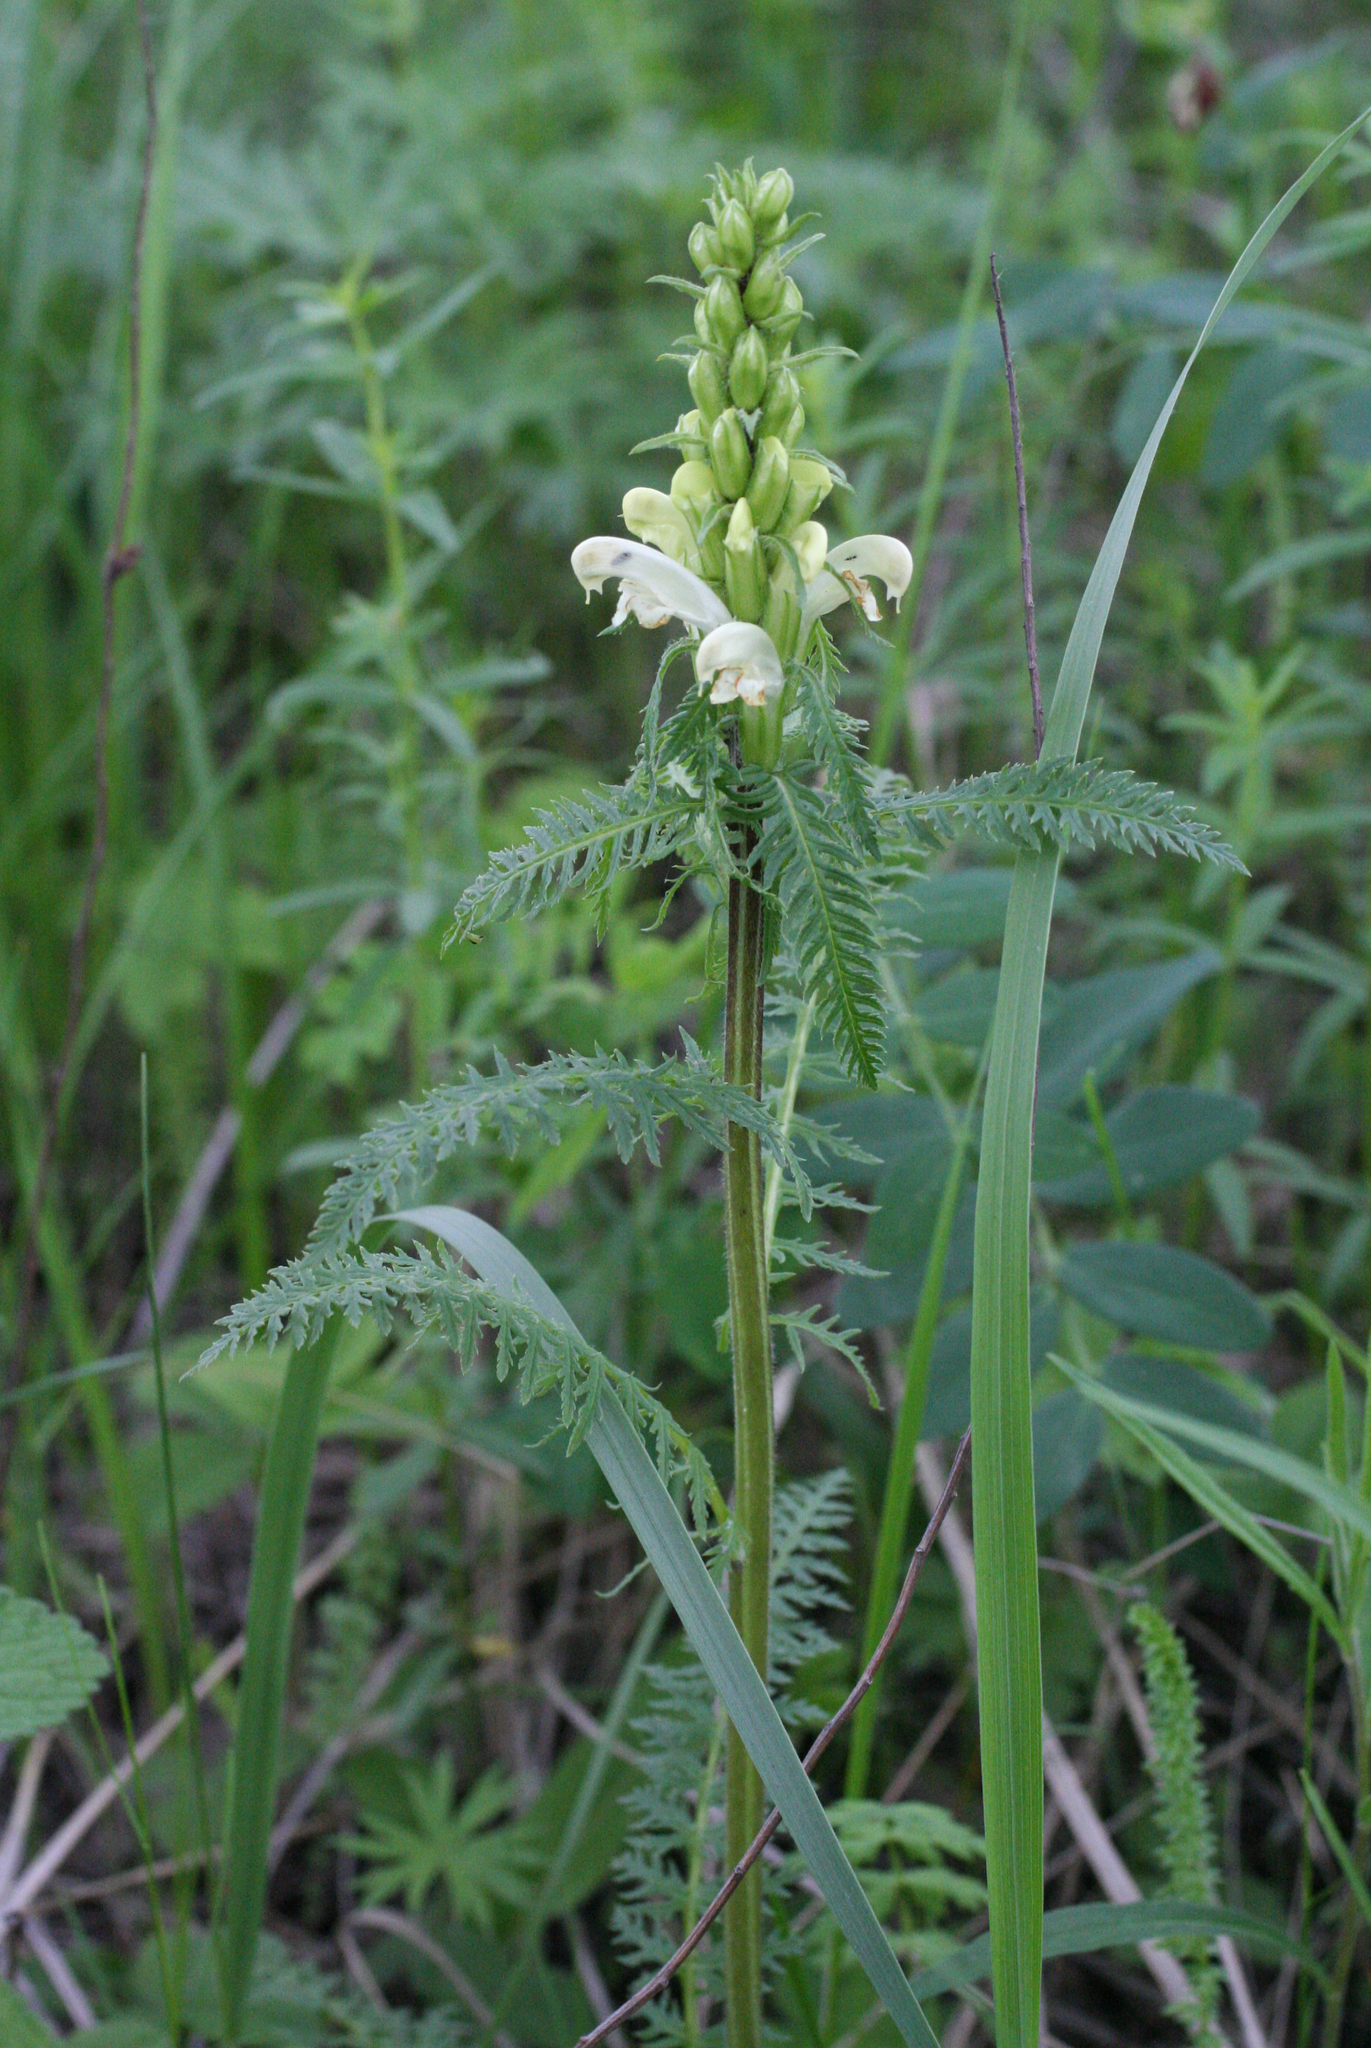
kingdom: Plantae
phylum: Tracheophyta
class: Magnoliopsida
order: Lamiales
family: Orobanchaceae
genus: Pedicularis
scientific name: Pedicularis sibirica
